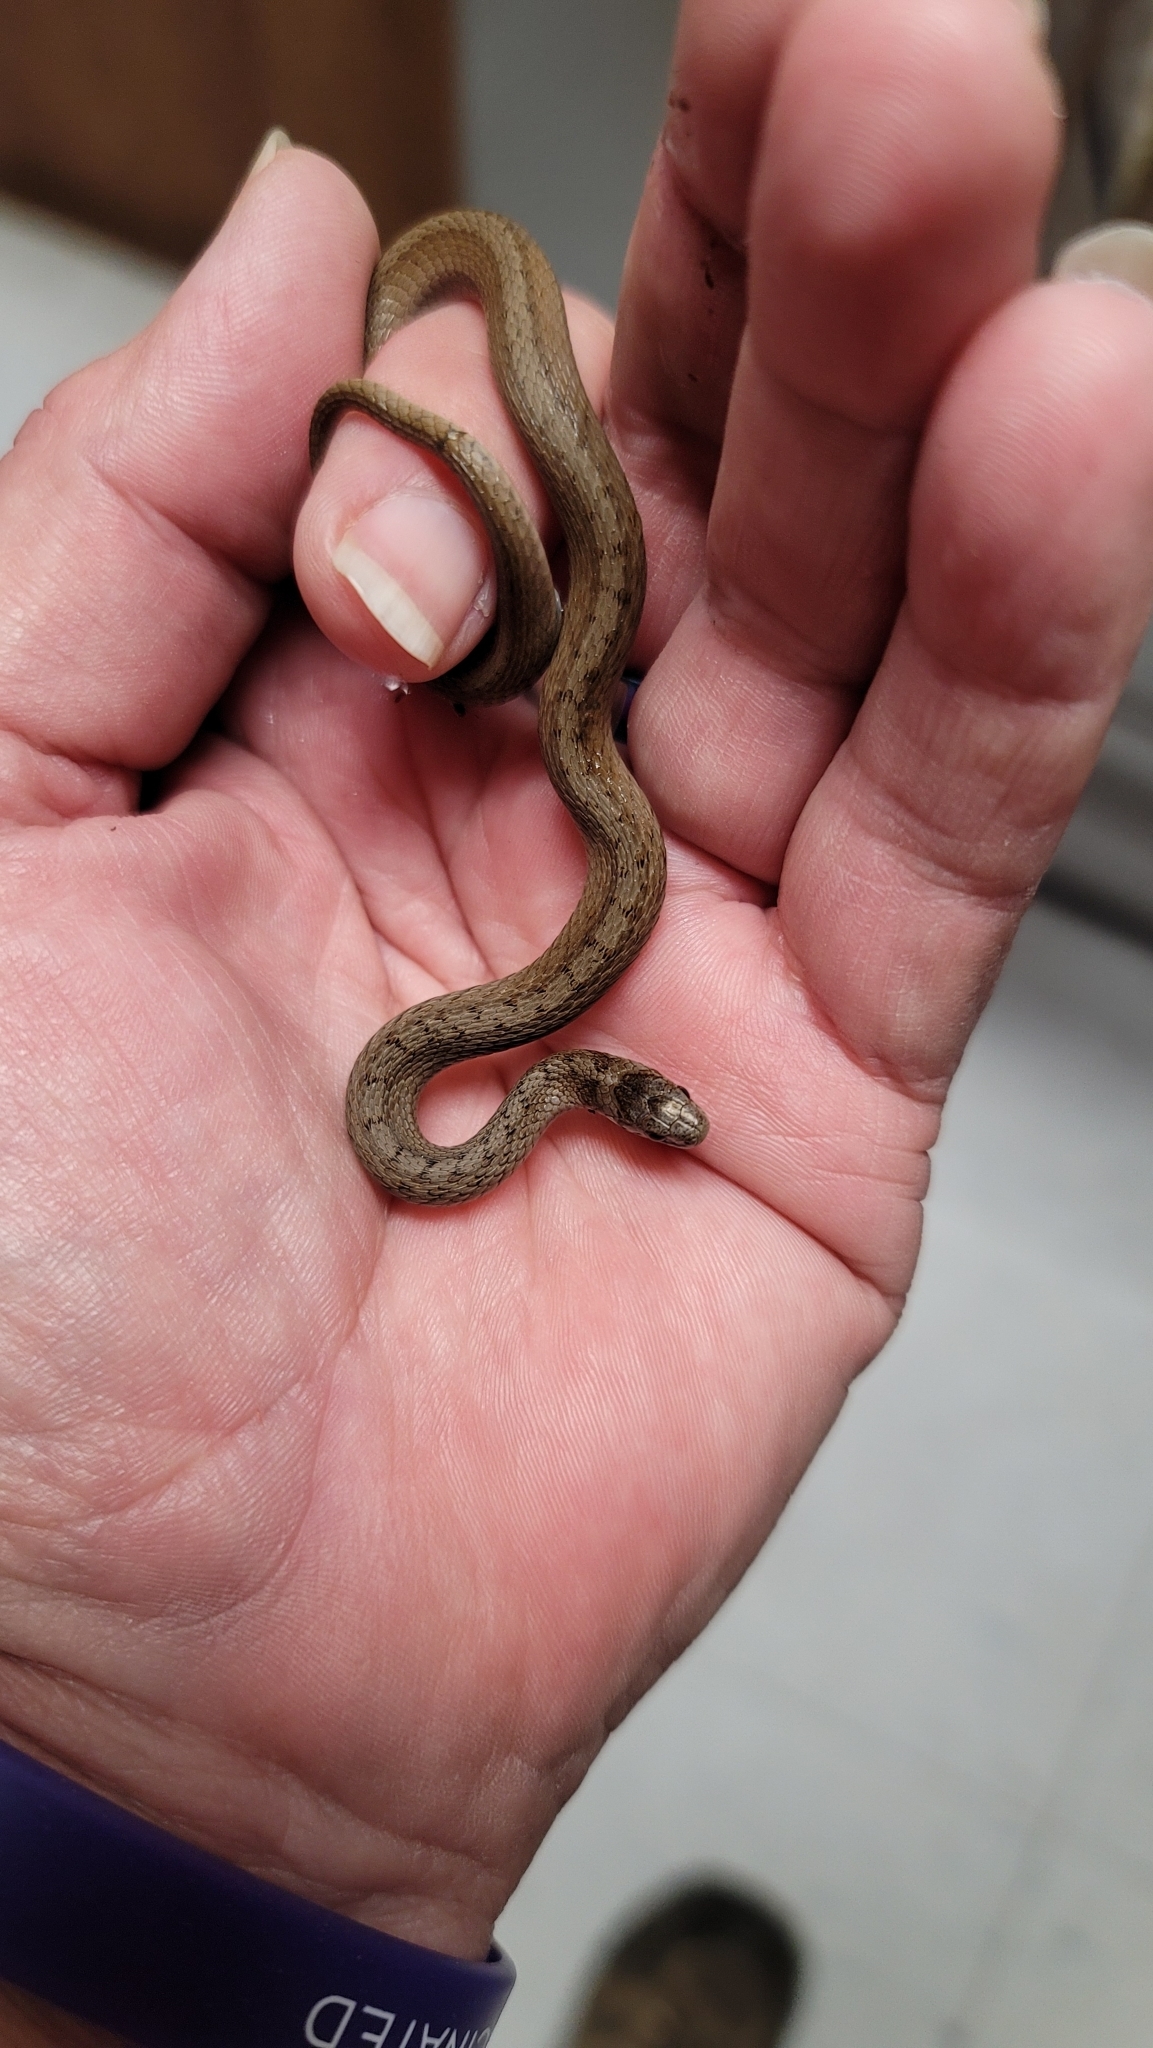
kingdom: Animalia
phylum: Chordata
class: Squamata
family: Colubridae
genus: Storeria
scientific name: Storeria dekayi
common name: (dekay’s) brown snake
